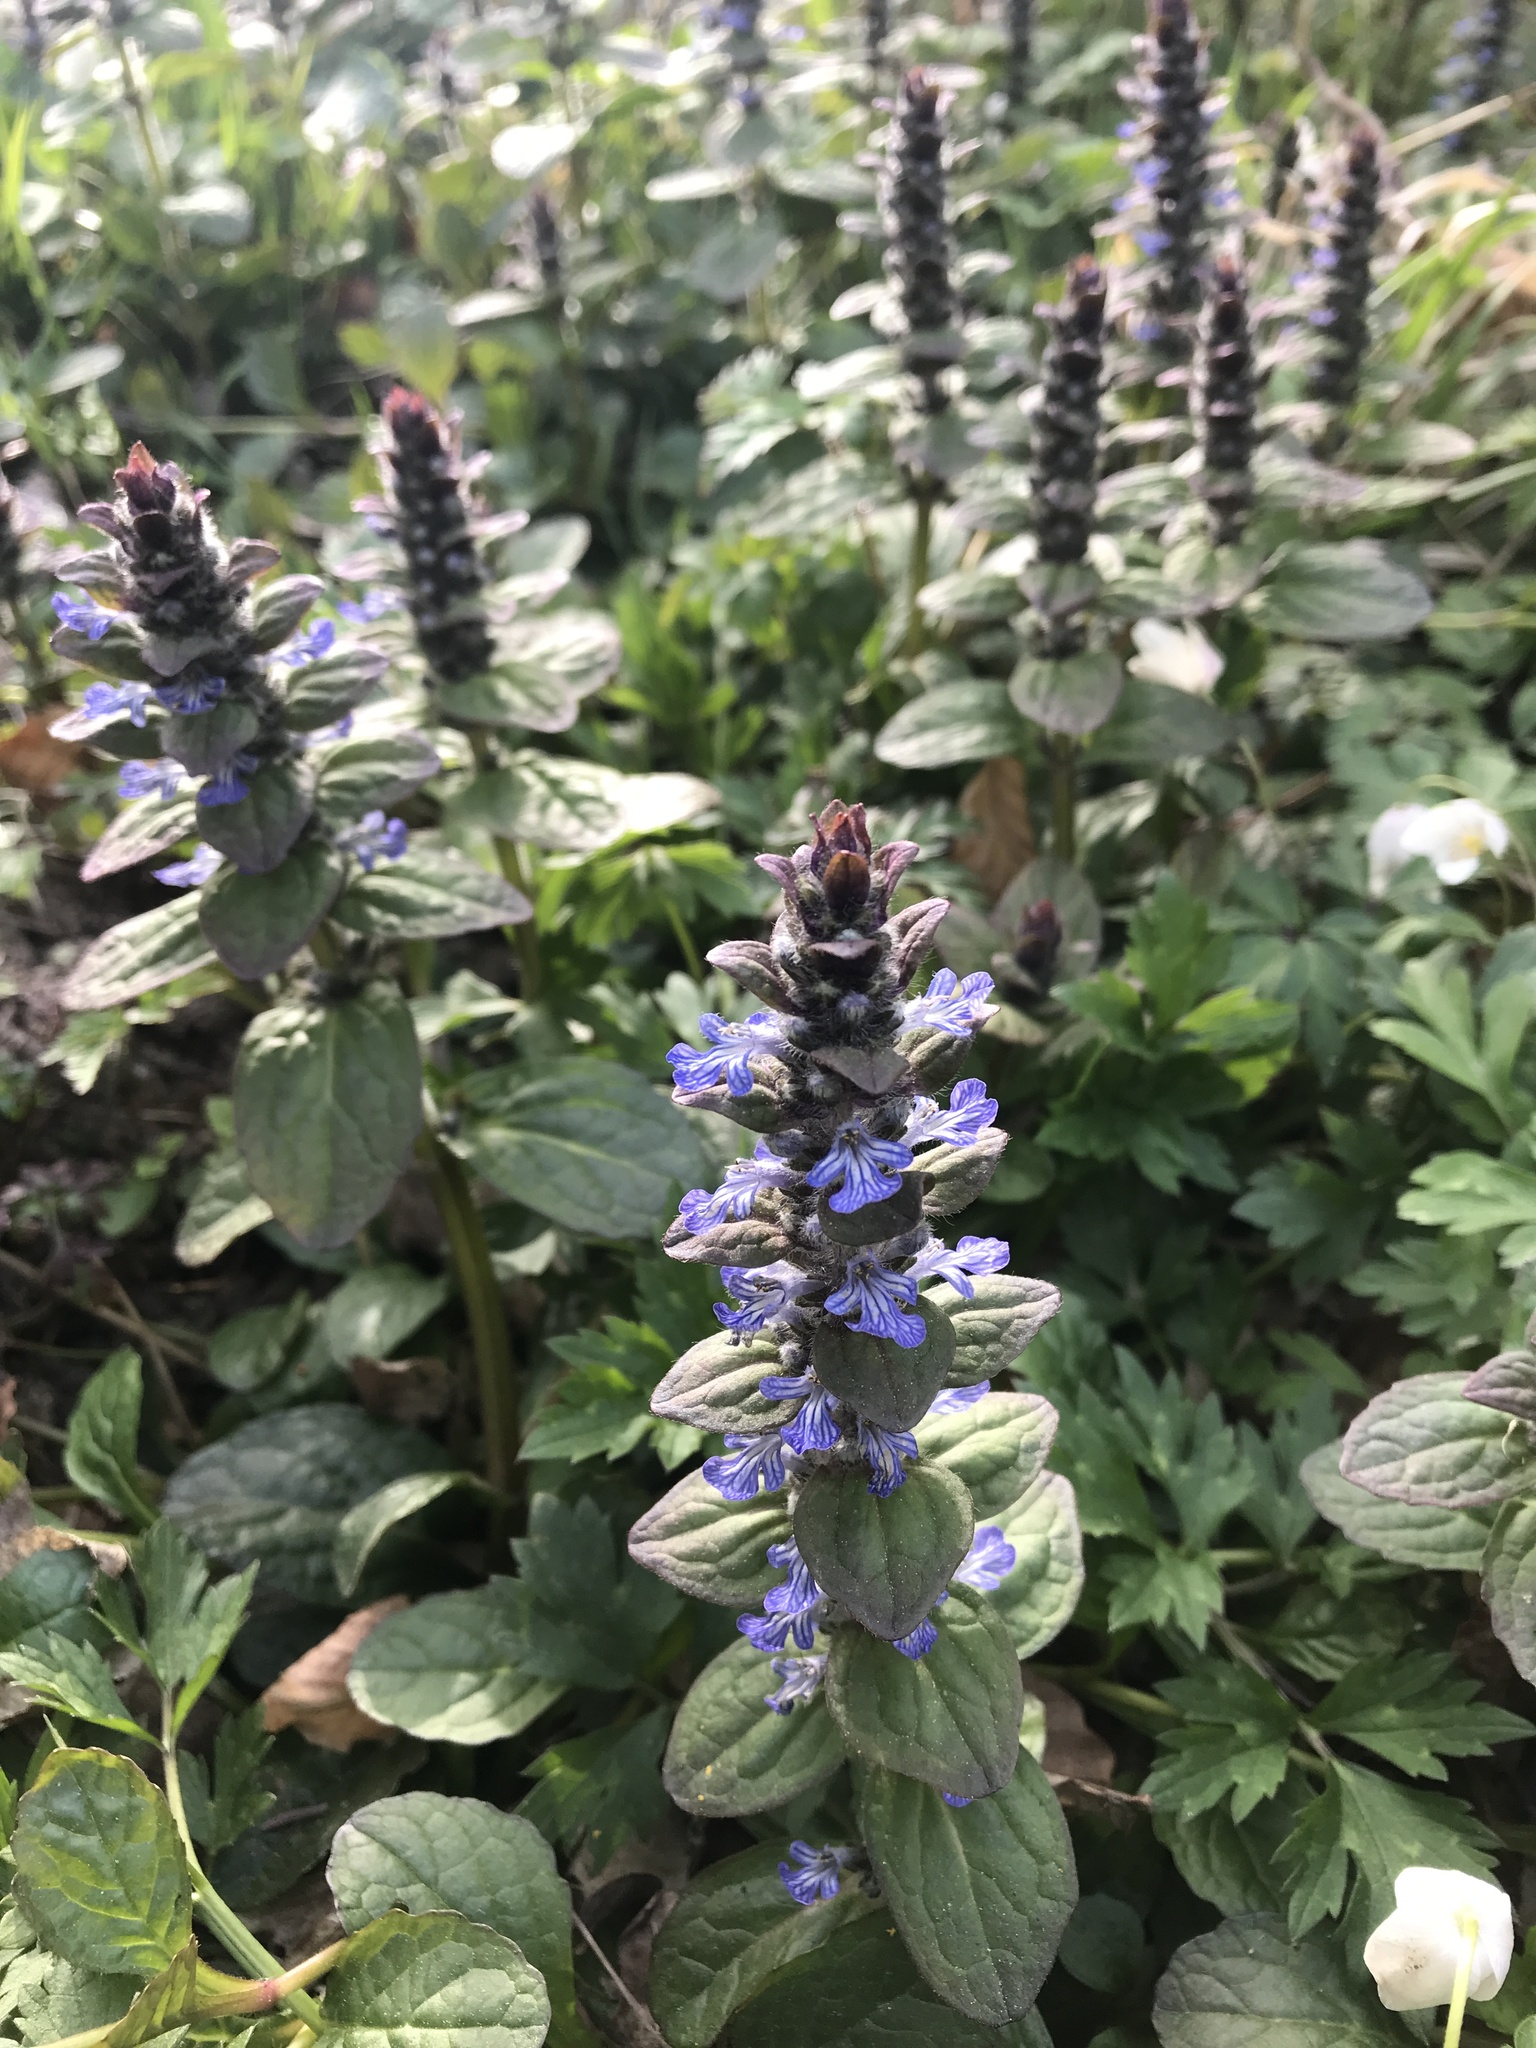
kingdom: Plantae
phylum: Tracheophyta
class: Magnoliopsida
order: Lamiales
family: Lamiaceae
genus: Ajuga
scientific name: Ajuga reptans
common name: Bugle
